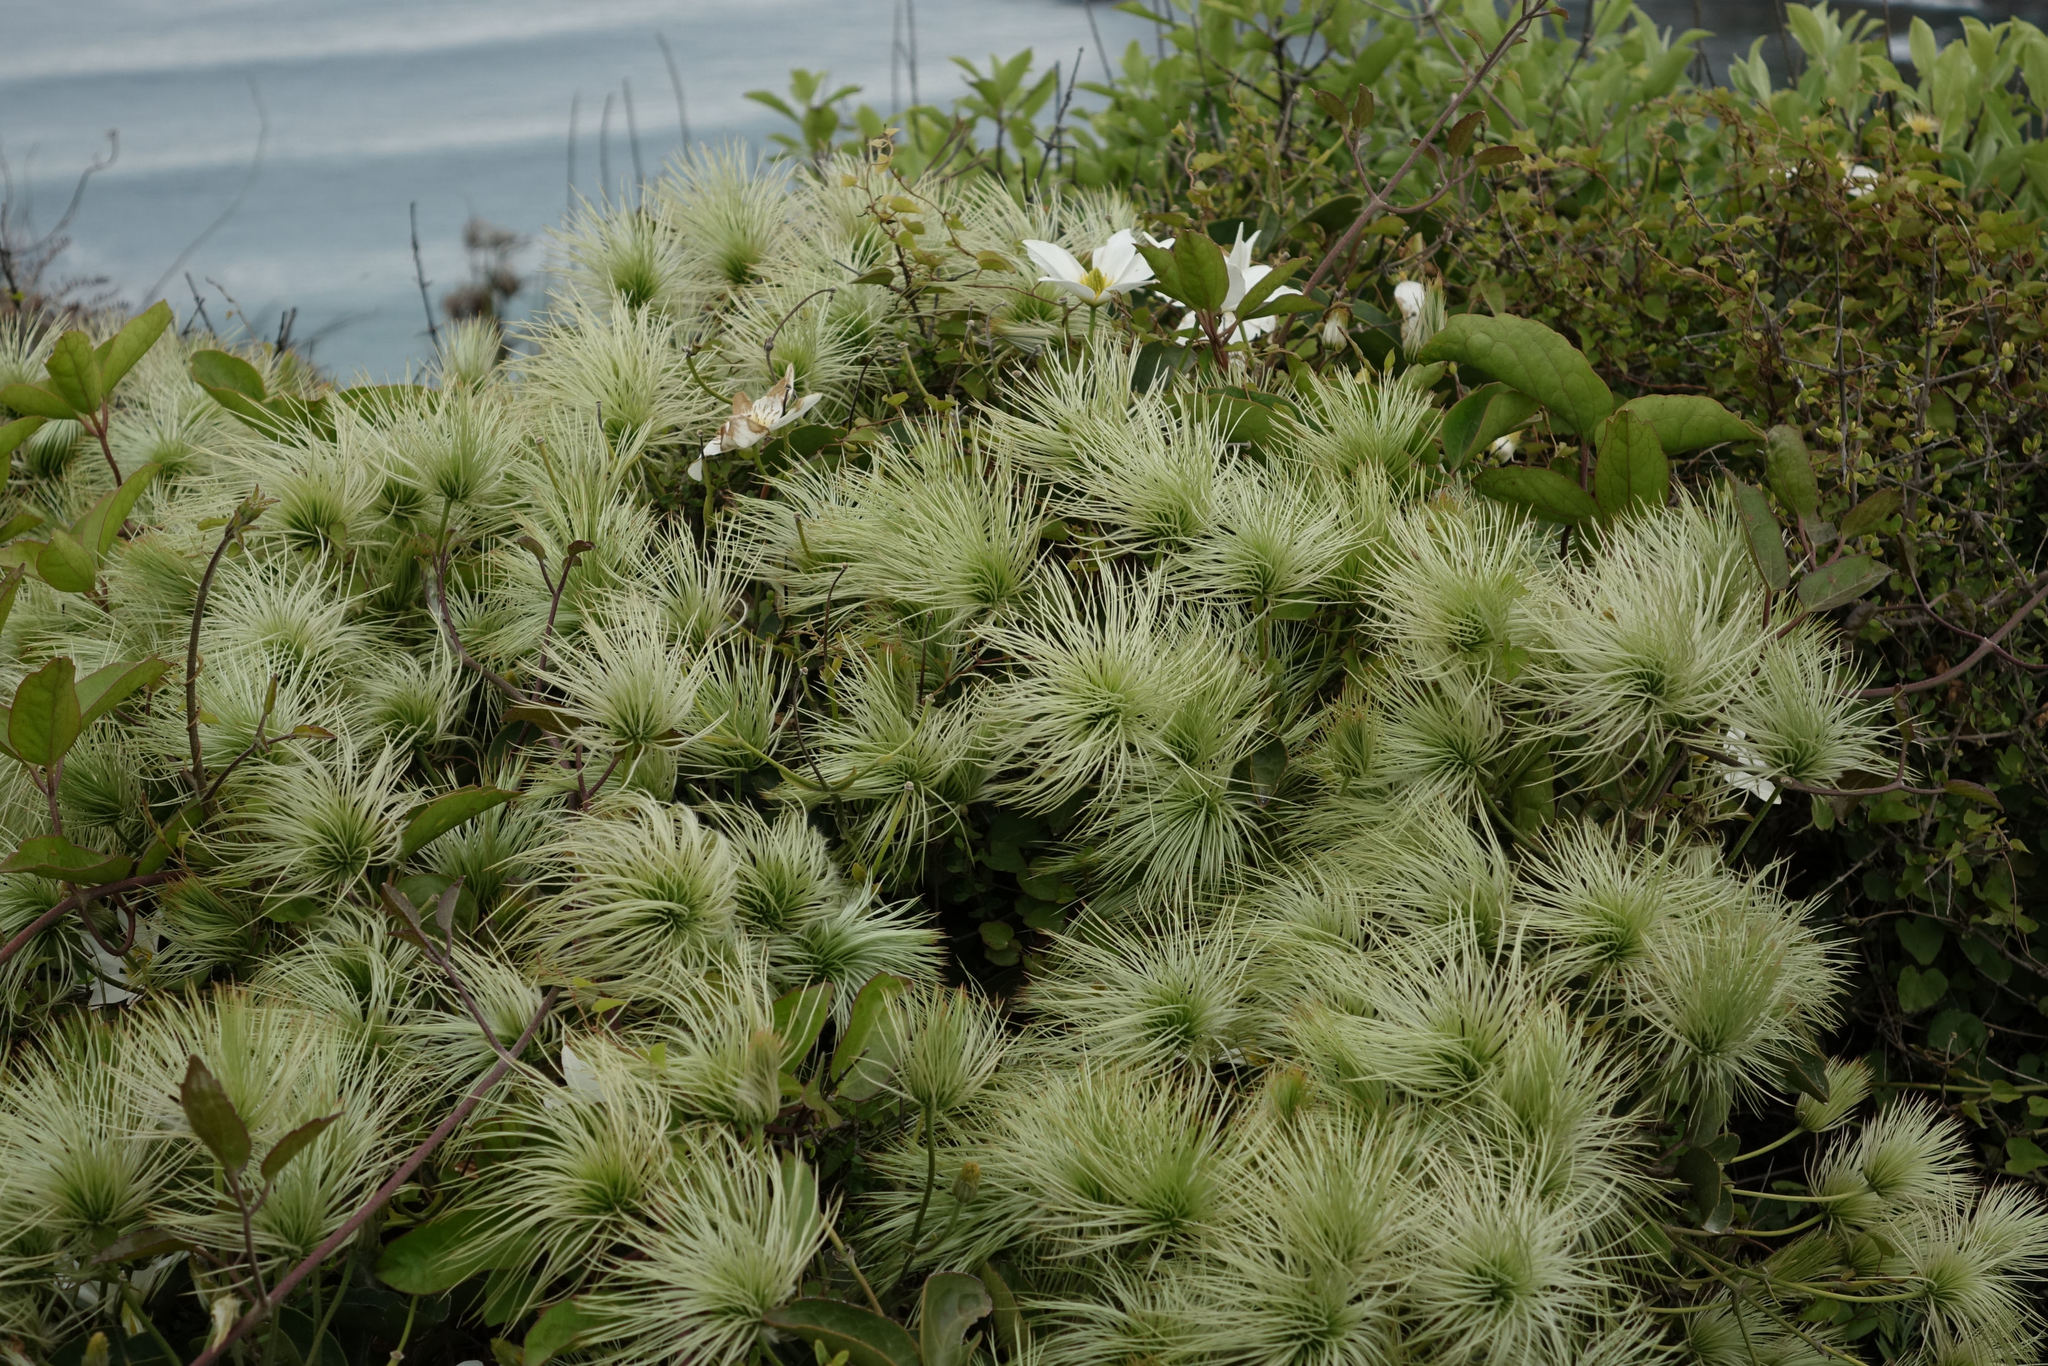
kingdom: Plantae
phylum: Tracheophyta
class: Magnoliopsida
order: Ranunculales
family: Ranunculaceae
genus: Clematis
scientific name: Clematis paniculata
